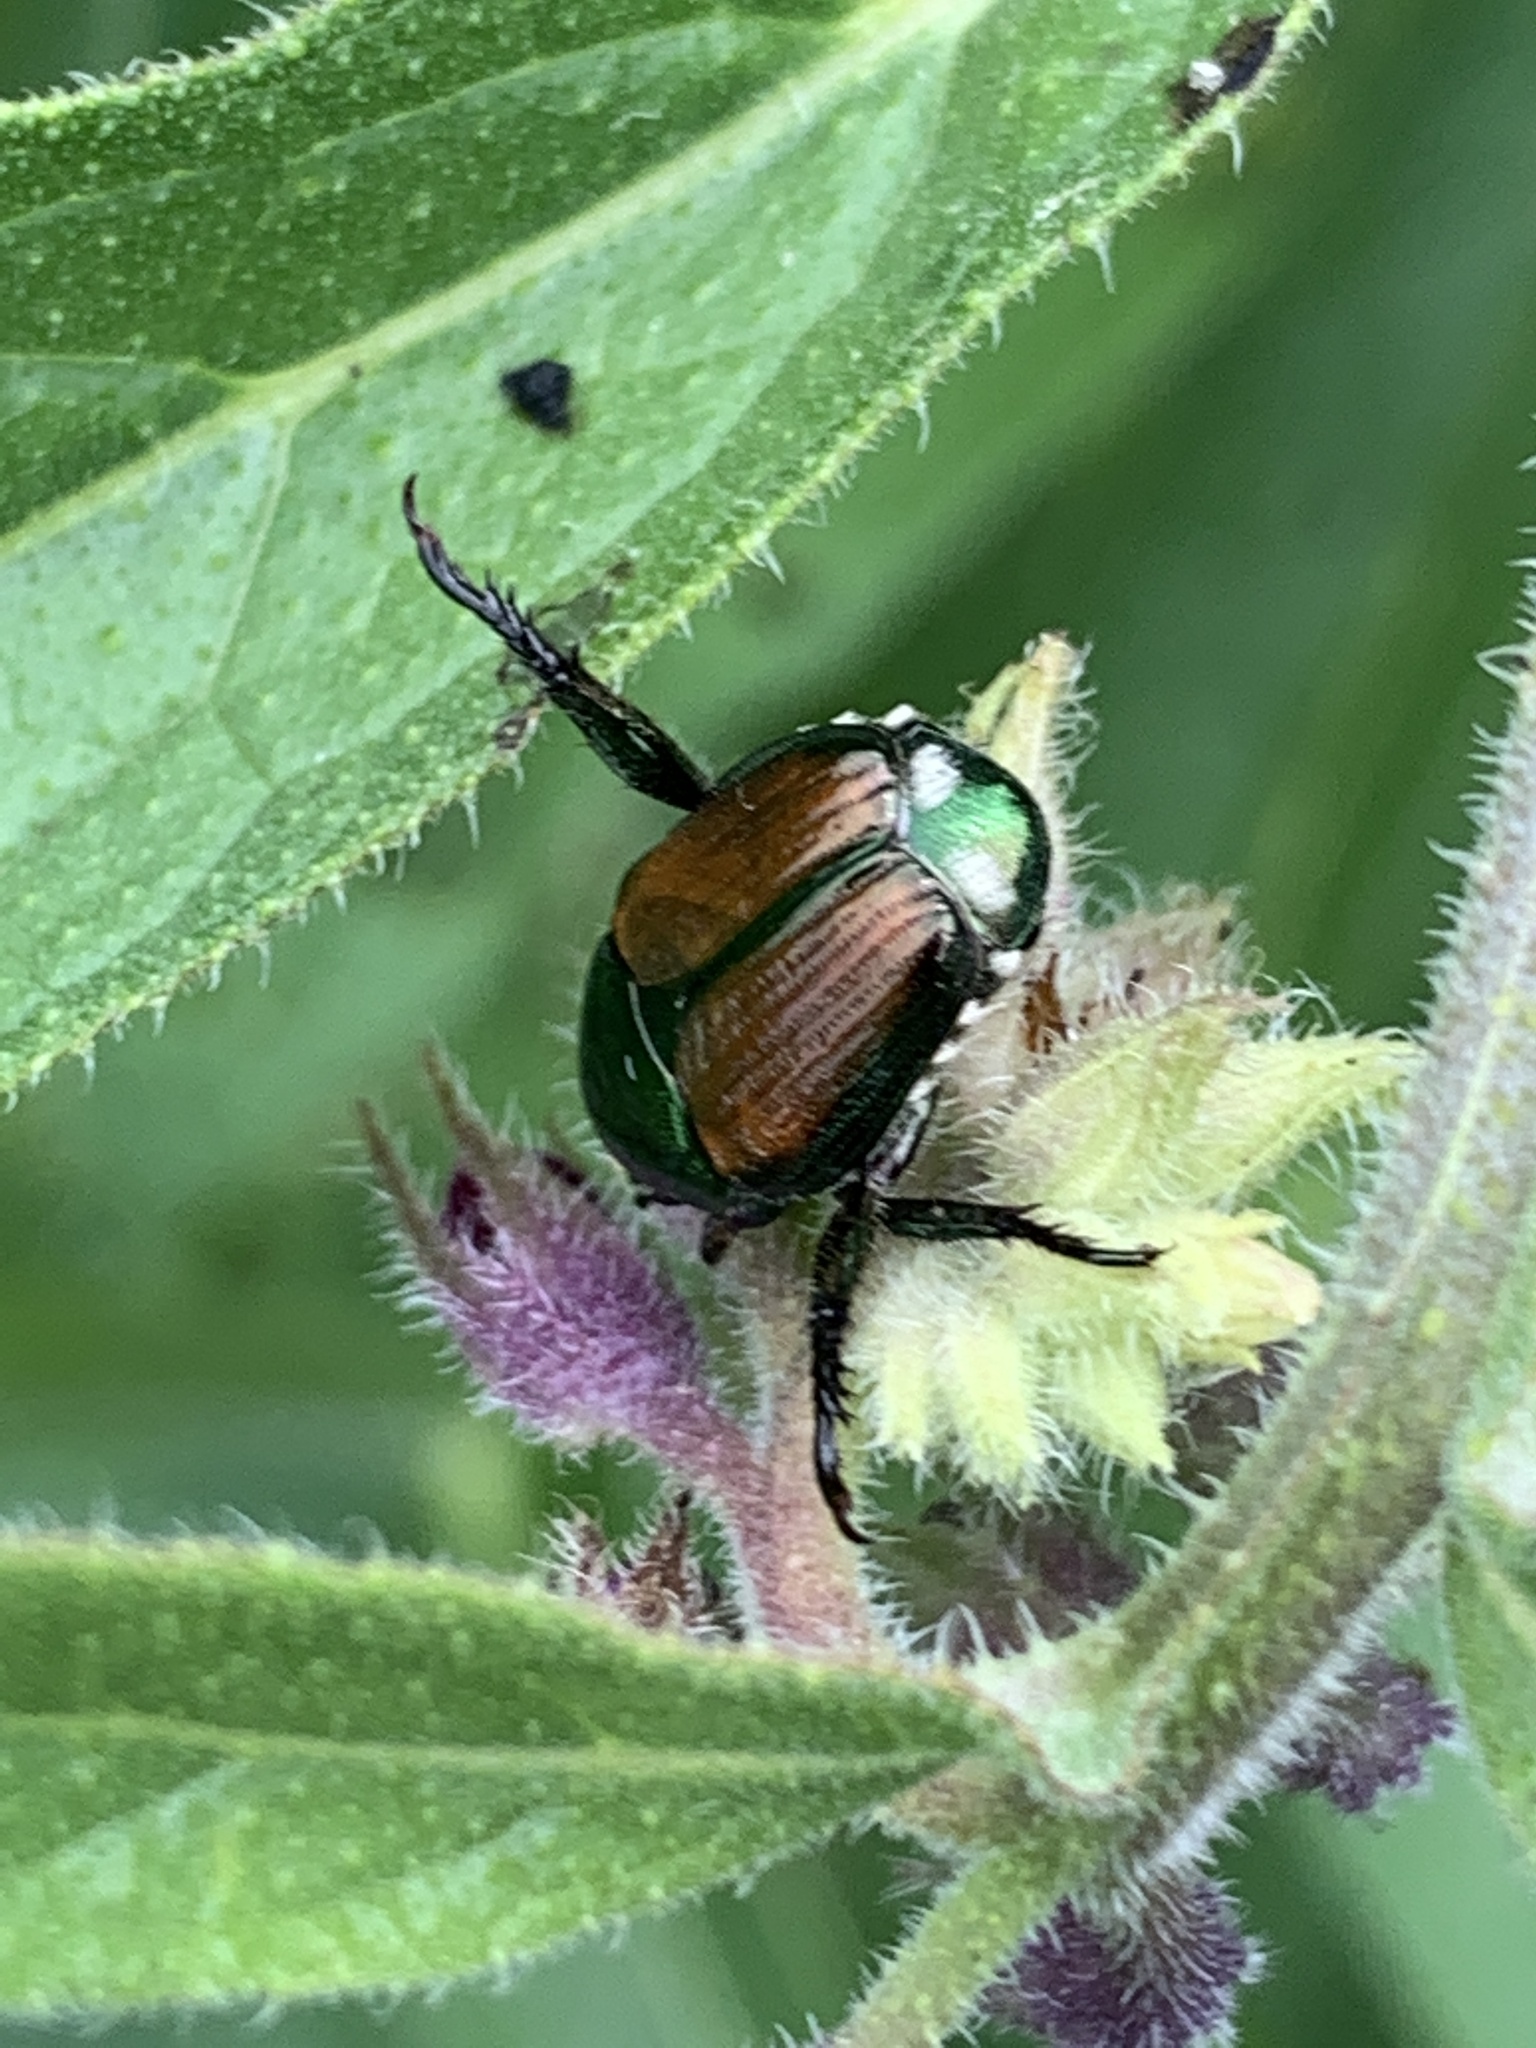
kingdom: Animalia
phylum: Arthropoda
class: Insecta
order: Coleoptera
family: Scarabaeidae
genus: Popillia
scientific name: Popillia japonica
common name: Japanese beetle
